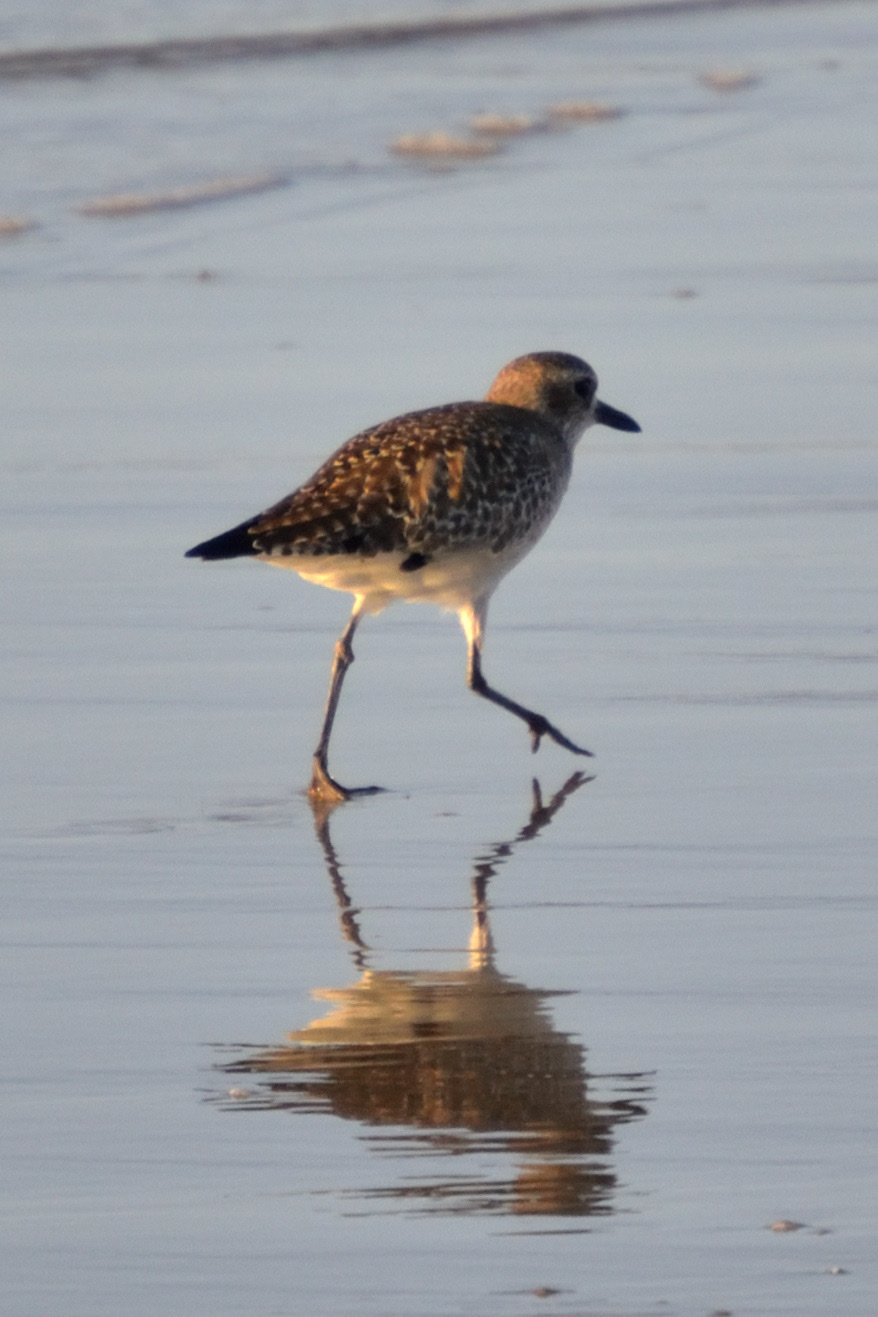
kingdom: Animalia
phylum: Chordata
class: Aves
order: Charadriiformes
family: Charadriidae
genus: Pluvialis
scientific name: Pluvialis squatarola
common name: Grey plover
